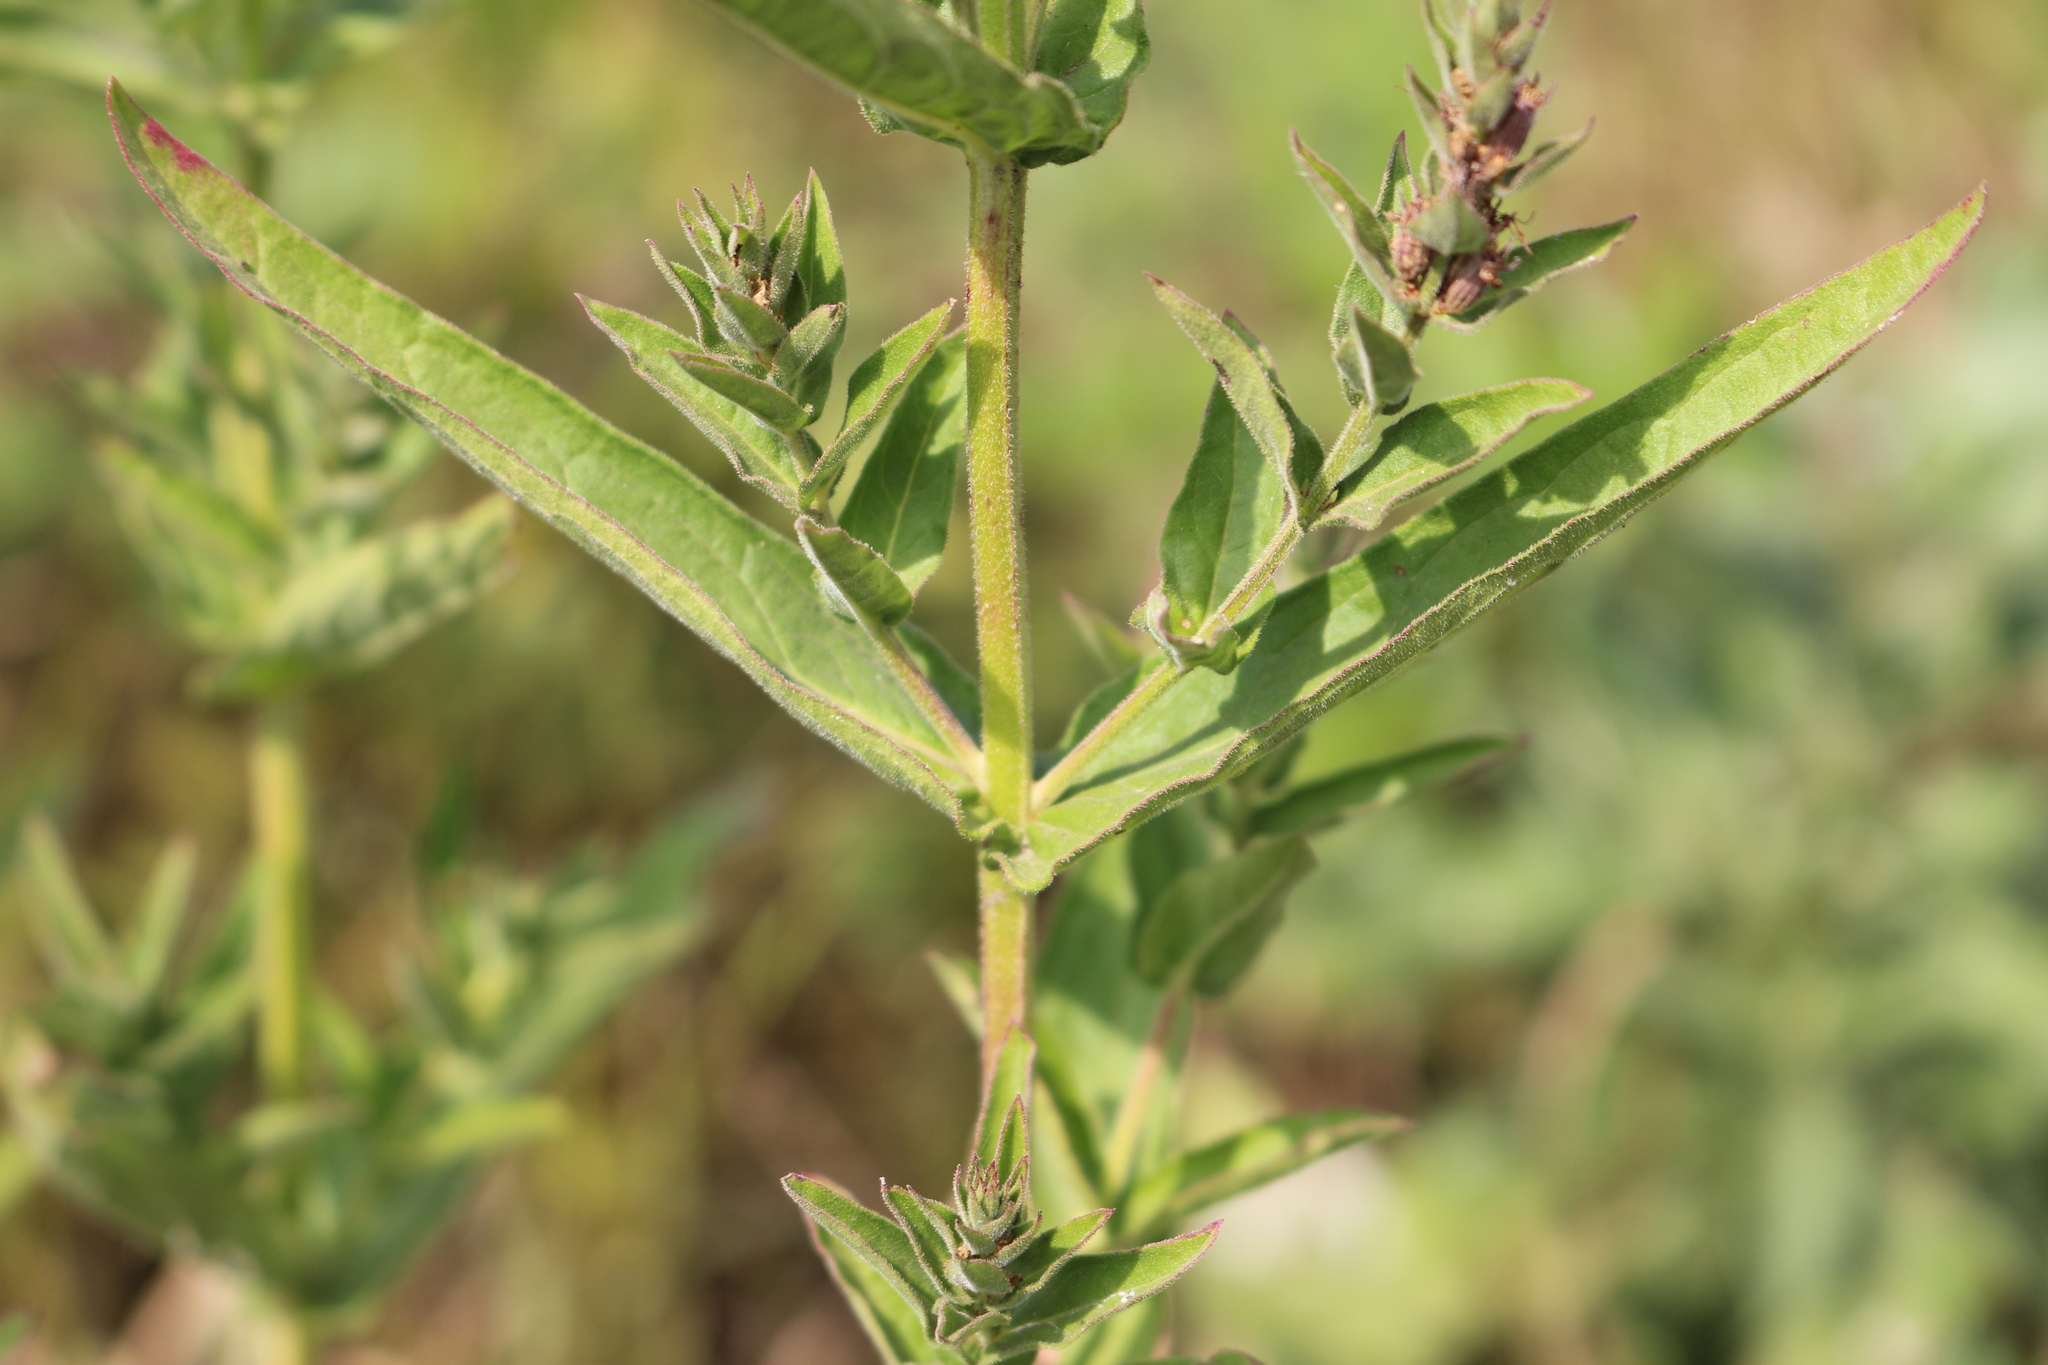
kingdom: Plantae
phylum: Tracheophyta
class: Magnoliopsida
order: Myrtales
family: Lythraceae
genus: Lythrum
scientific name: Lythrum salicaria
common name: Purple loosestrife
